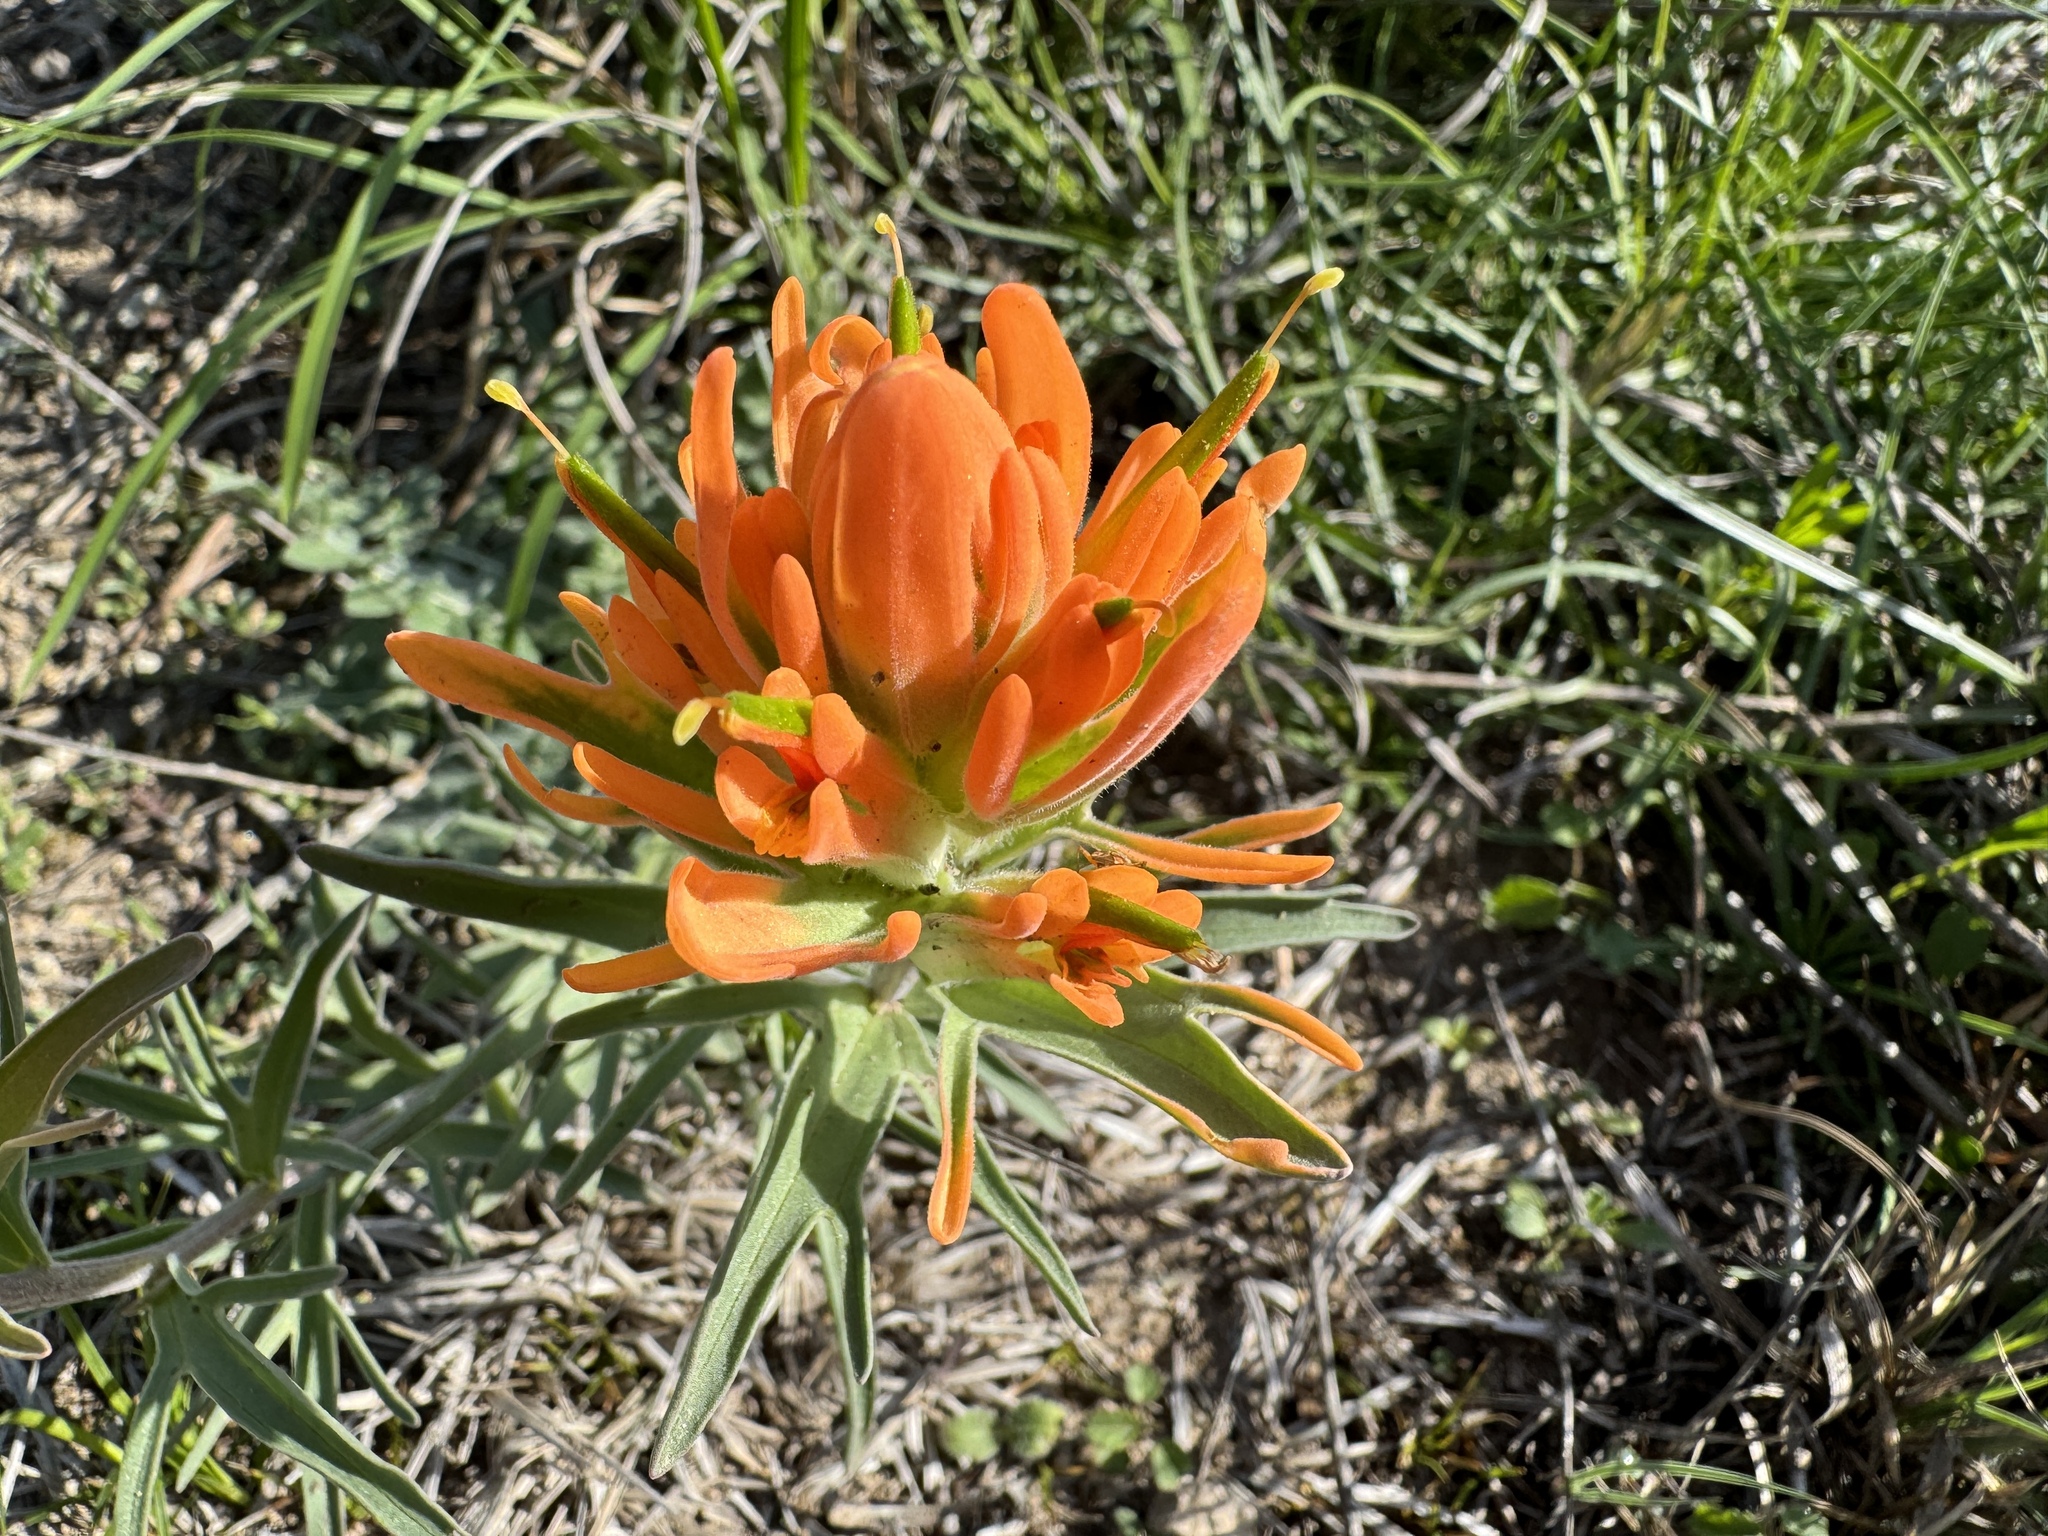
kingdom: Plantae
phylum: Tracheophyta
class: Magnoliopsida
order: Lamiales
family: Orobanchaceae
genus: Castilleja
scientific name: Castilleja lindheimeri
